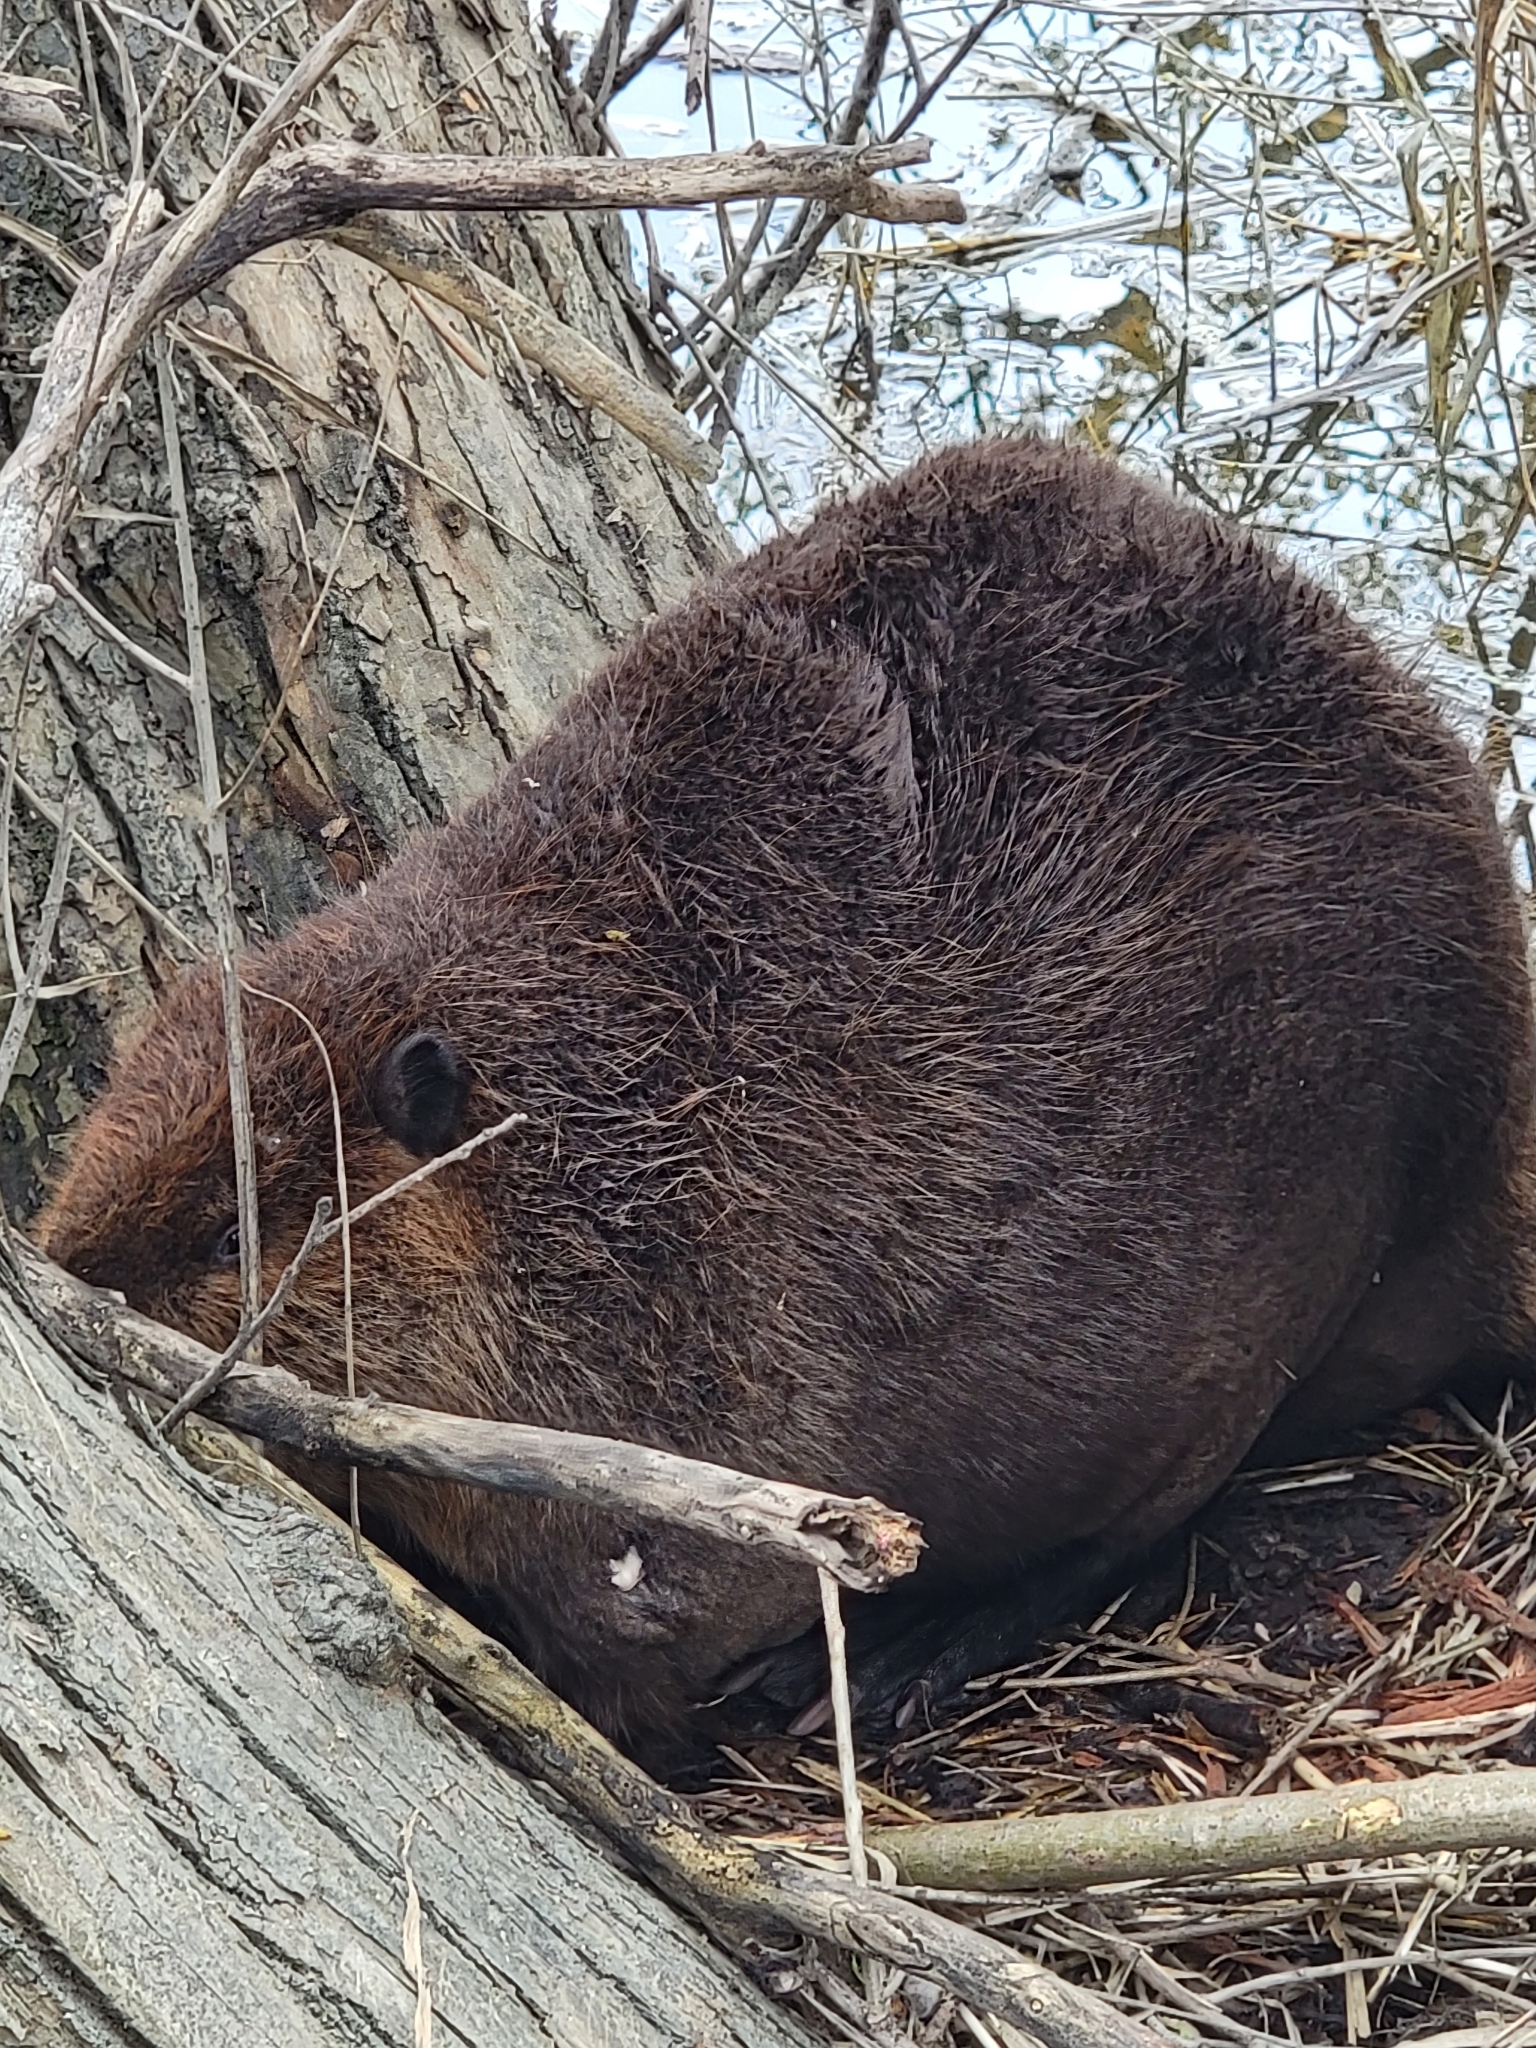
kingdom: Animalia
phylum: Chordata
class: Mammalia
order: Rodentia
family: Castoridae
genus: Castor
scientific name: Castor canadensis
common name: American beaver
